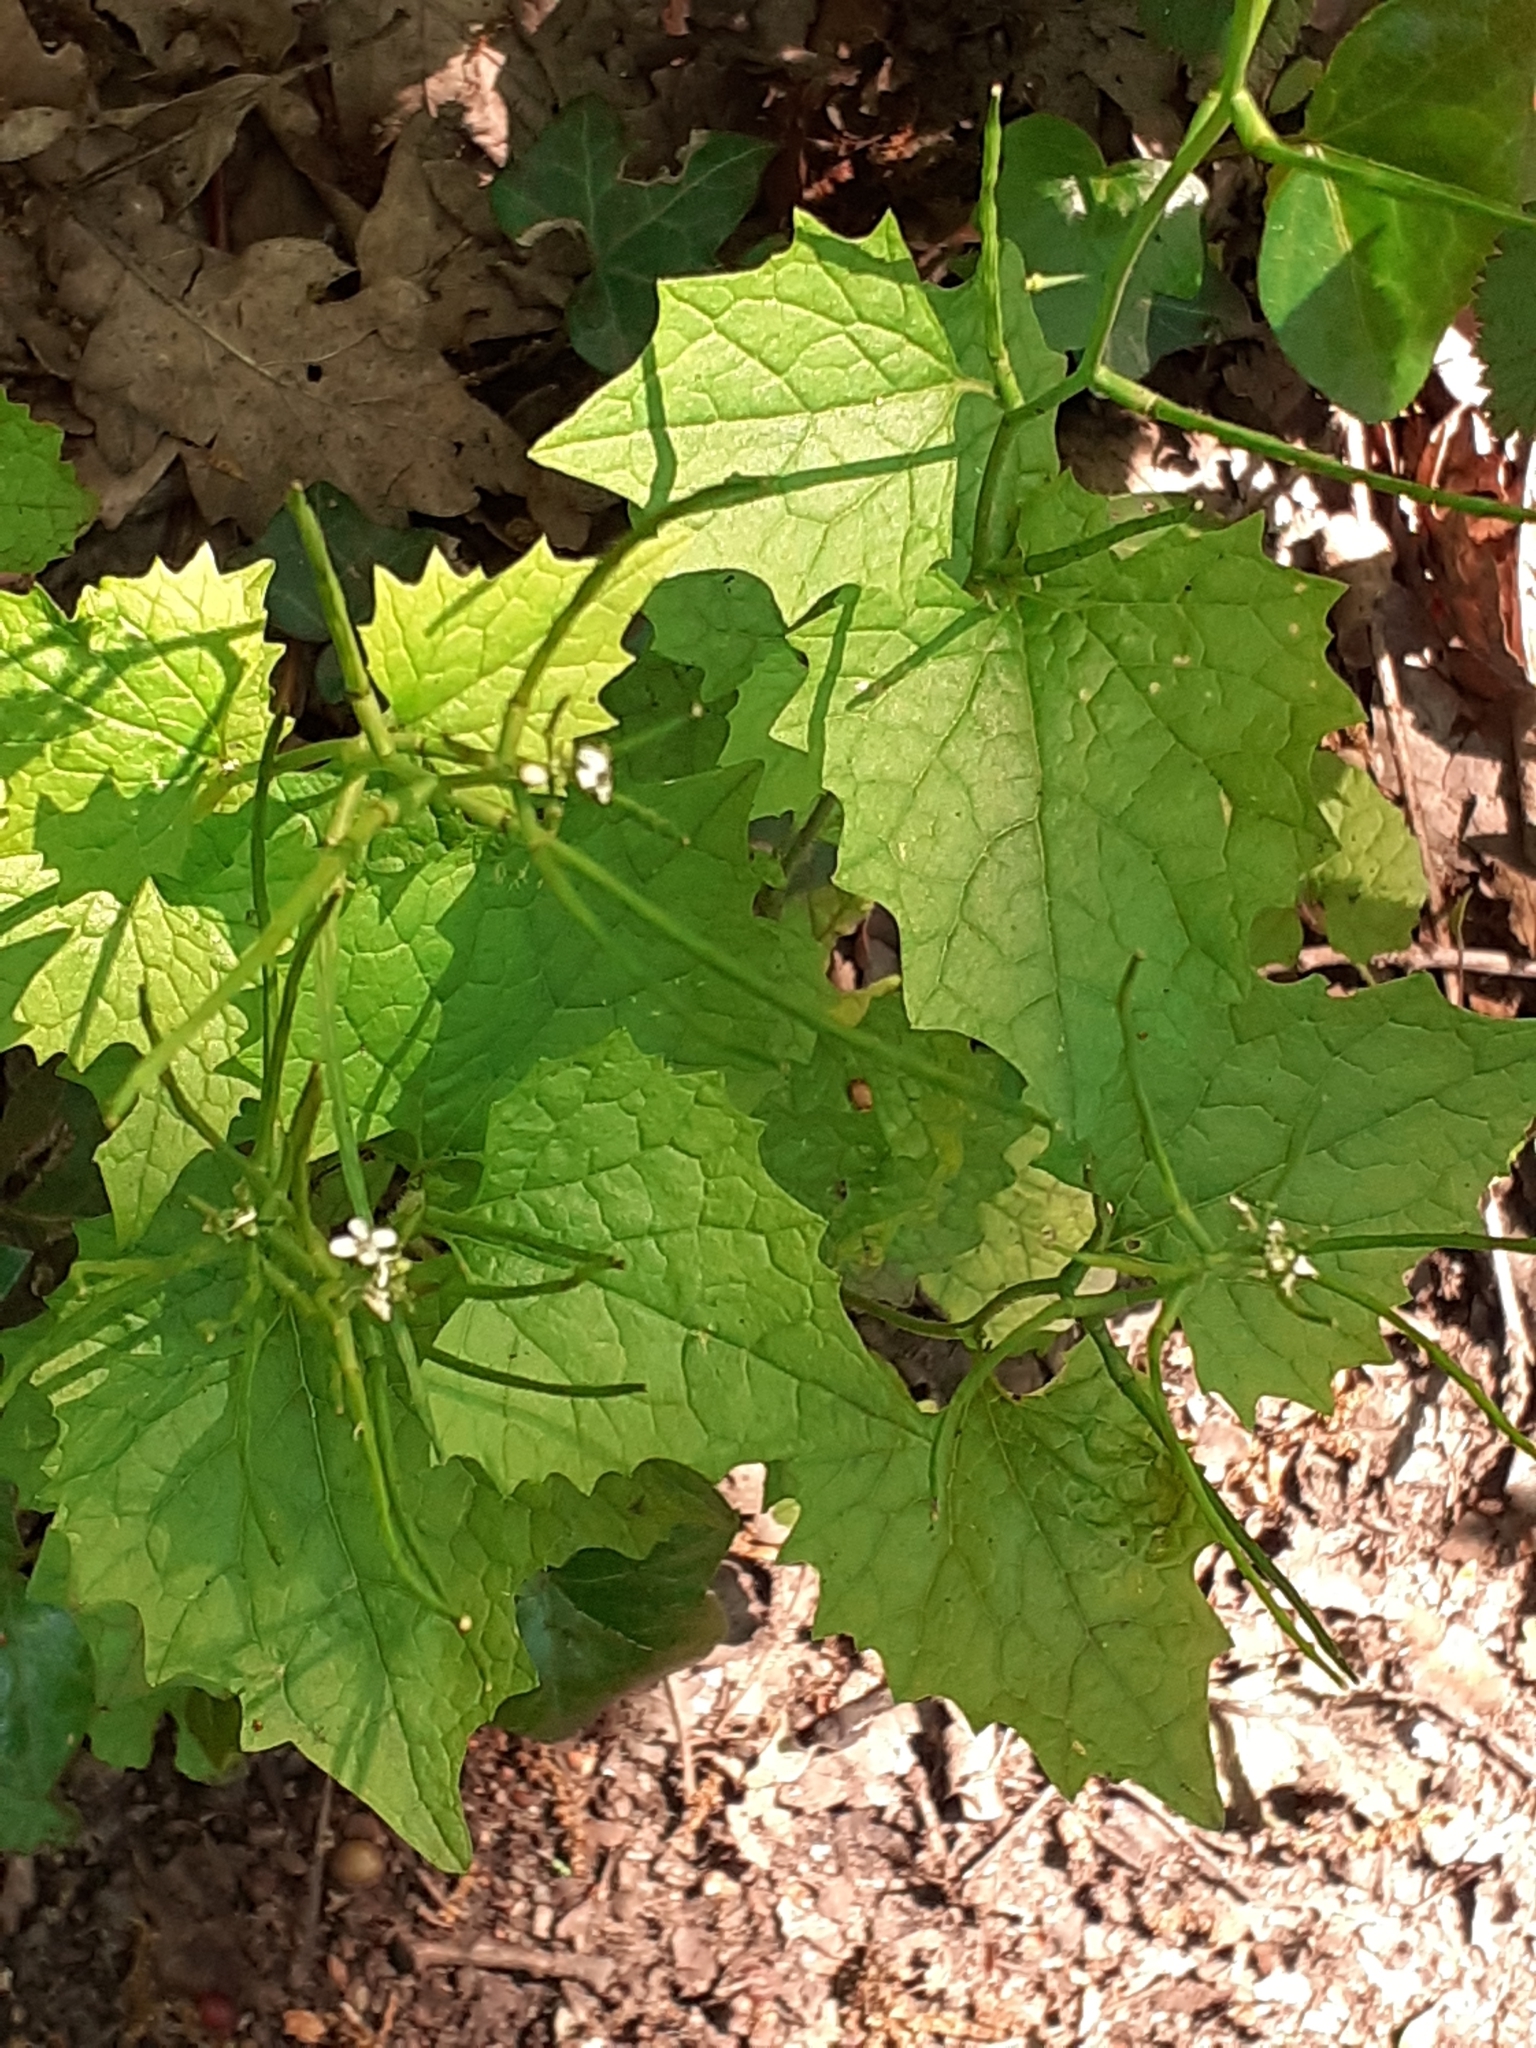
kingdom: Plantae
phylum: Tracheophyta
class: Magnoliopsida
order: Brassicales
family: Brassicaceae
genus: Alliaria
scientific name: Alliaria petiolata
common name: Garlic mustard
